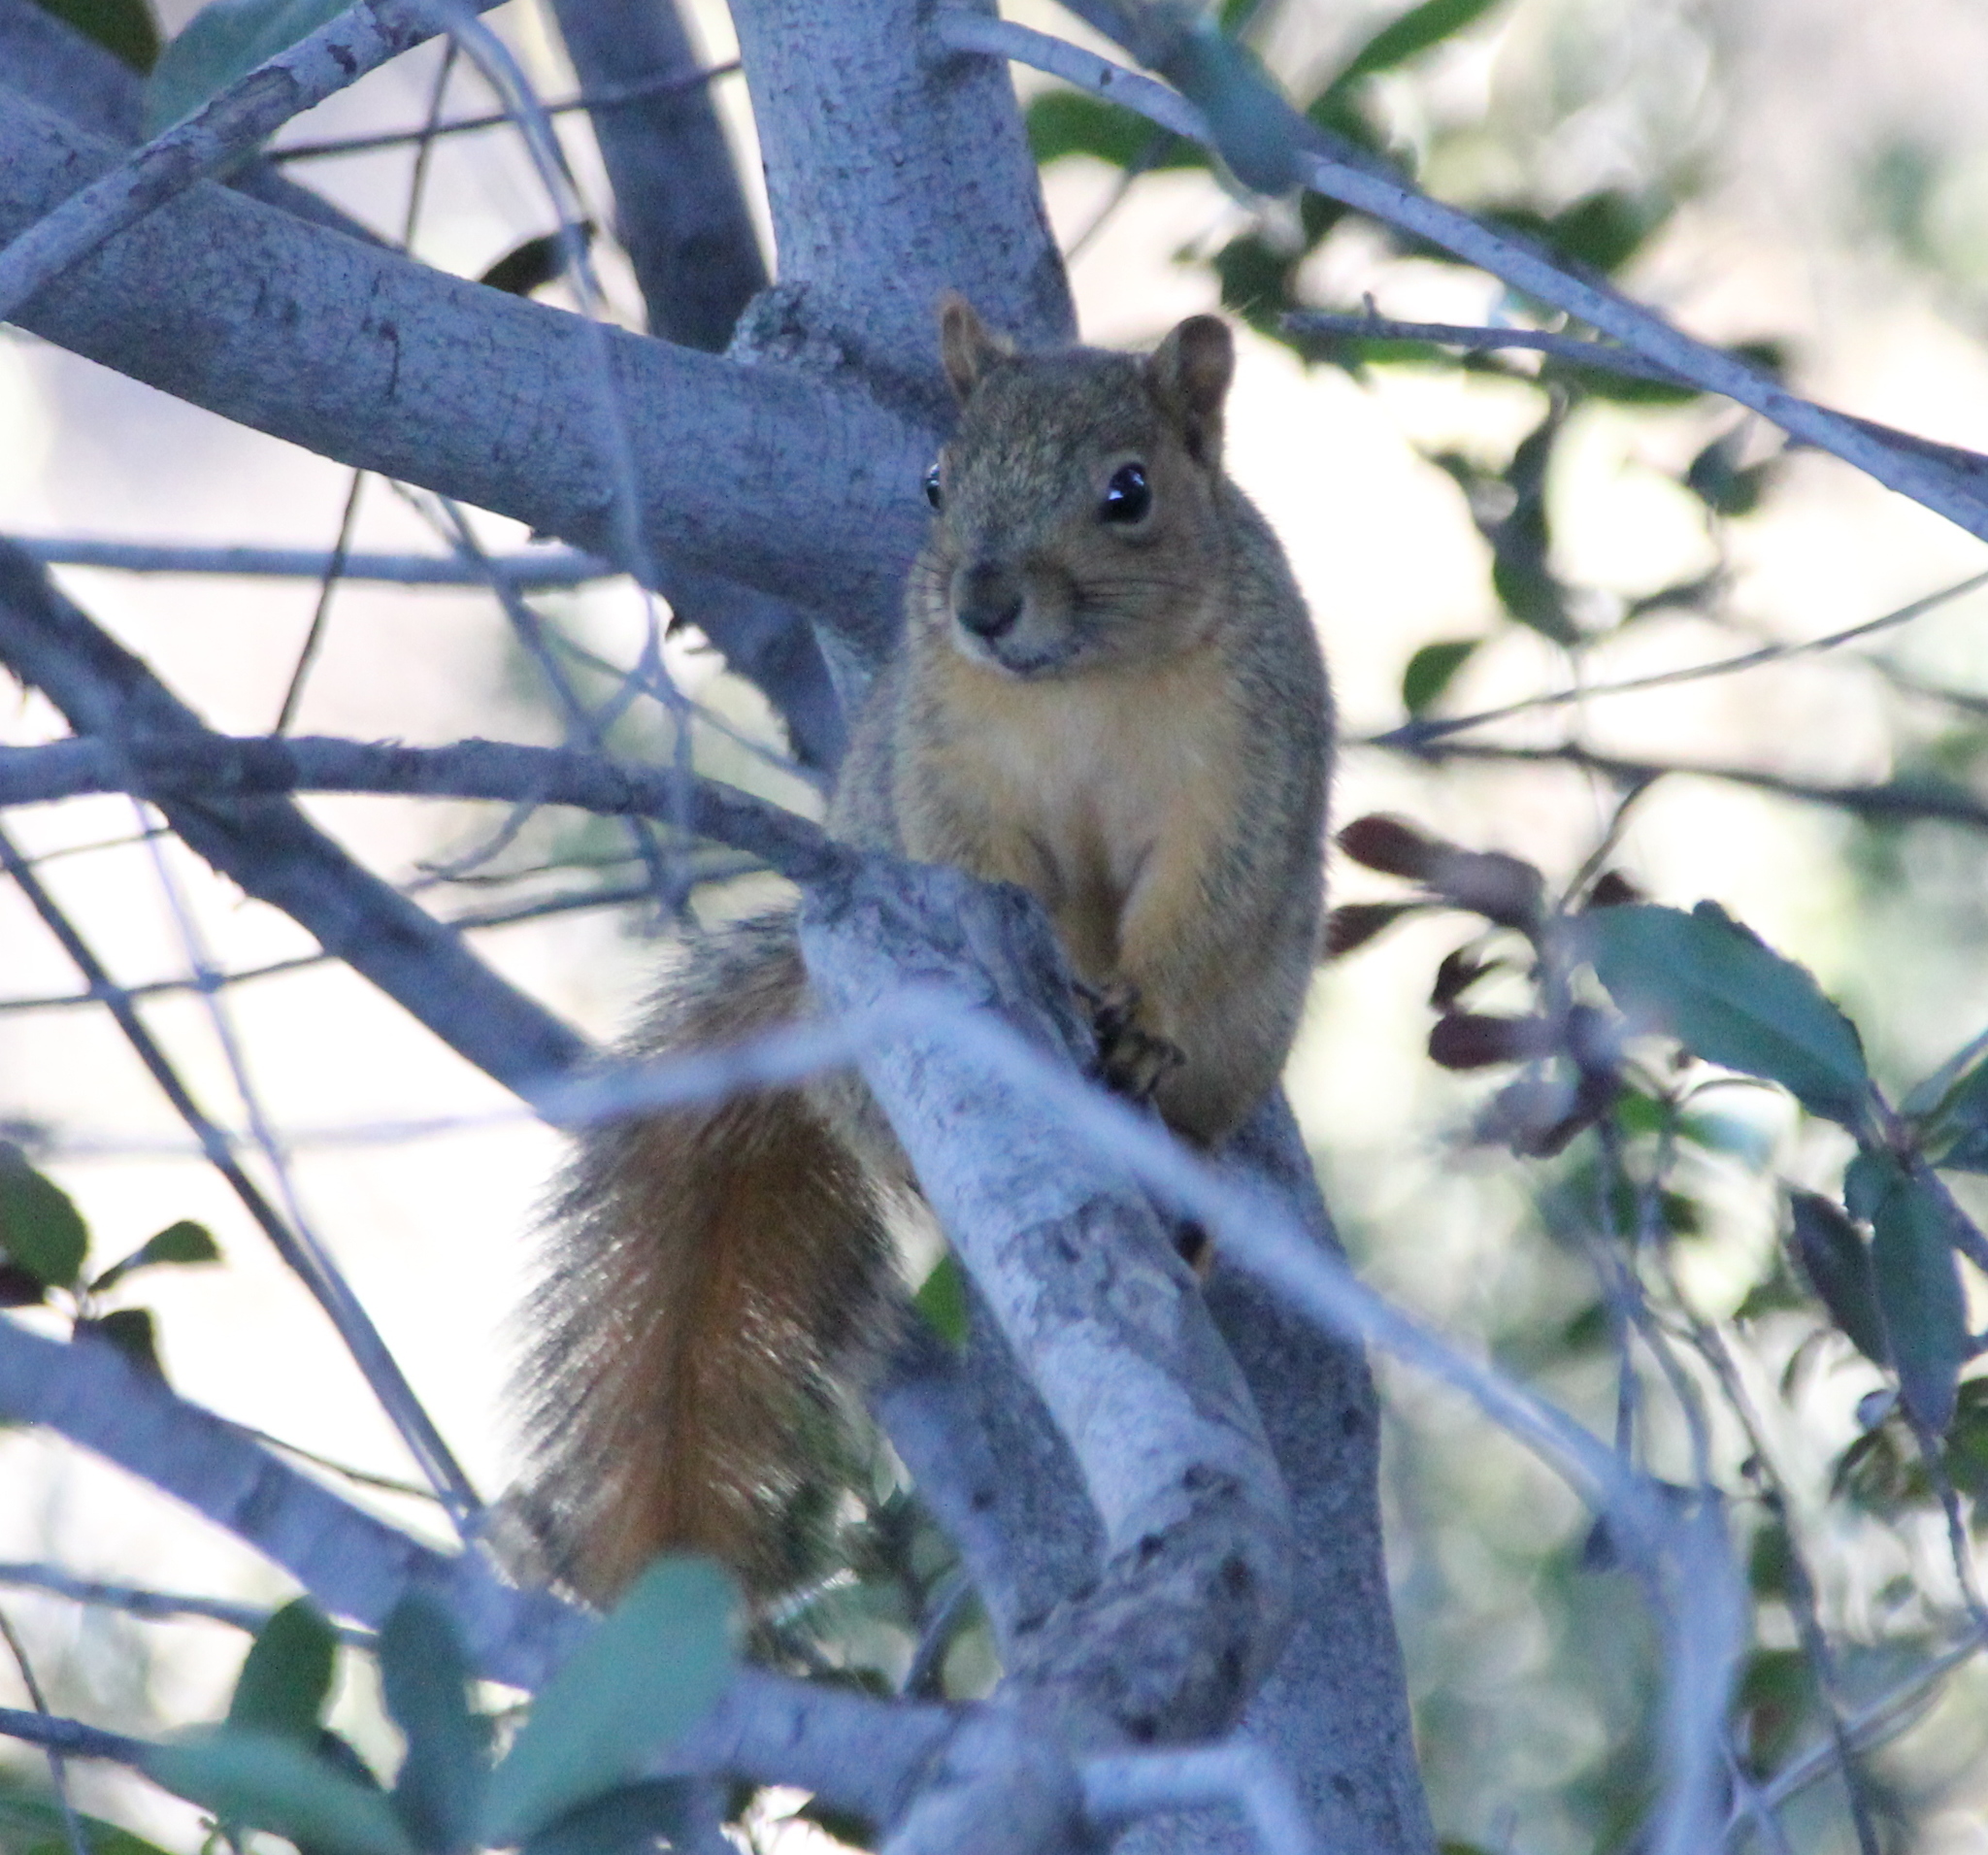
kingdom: Animalia
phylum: Chordata
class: Mammalia
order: Rodentia
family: Sciuridae
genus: Sciurus
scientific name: Sciurus niger
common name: Fox squirrel
